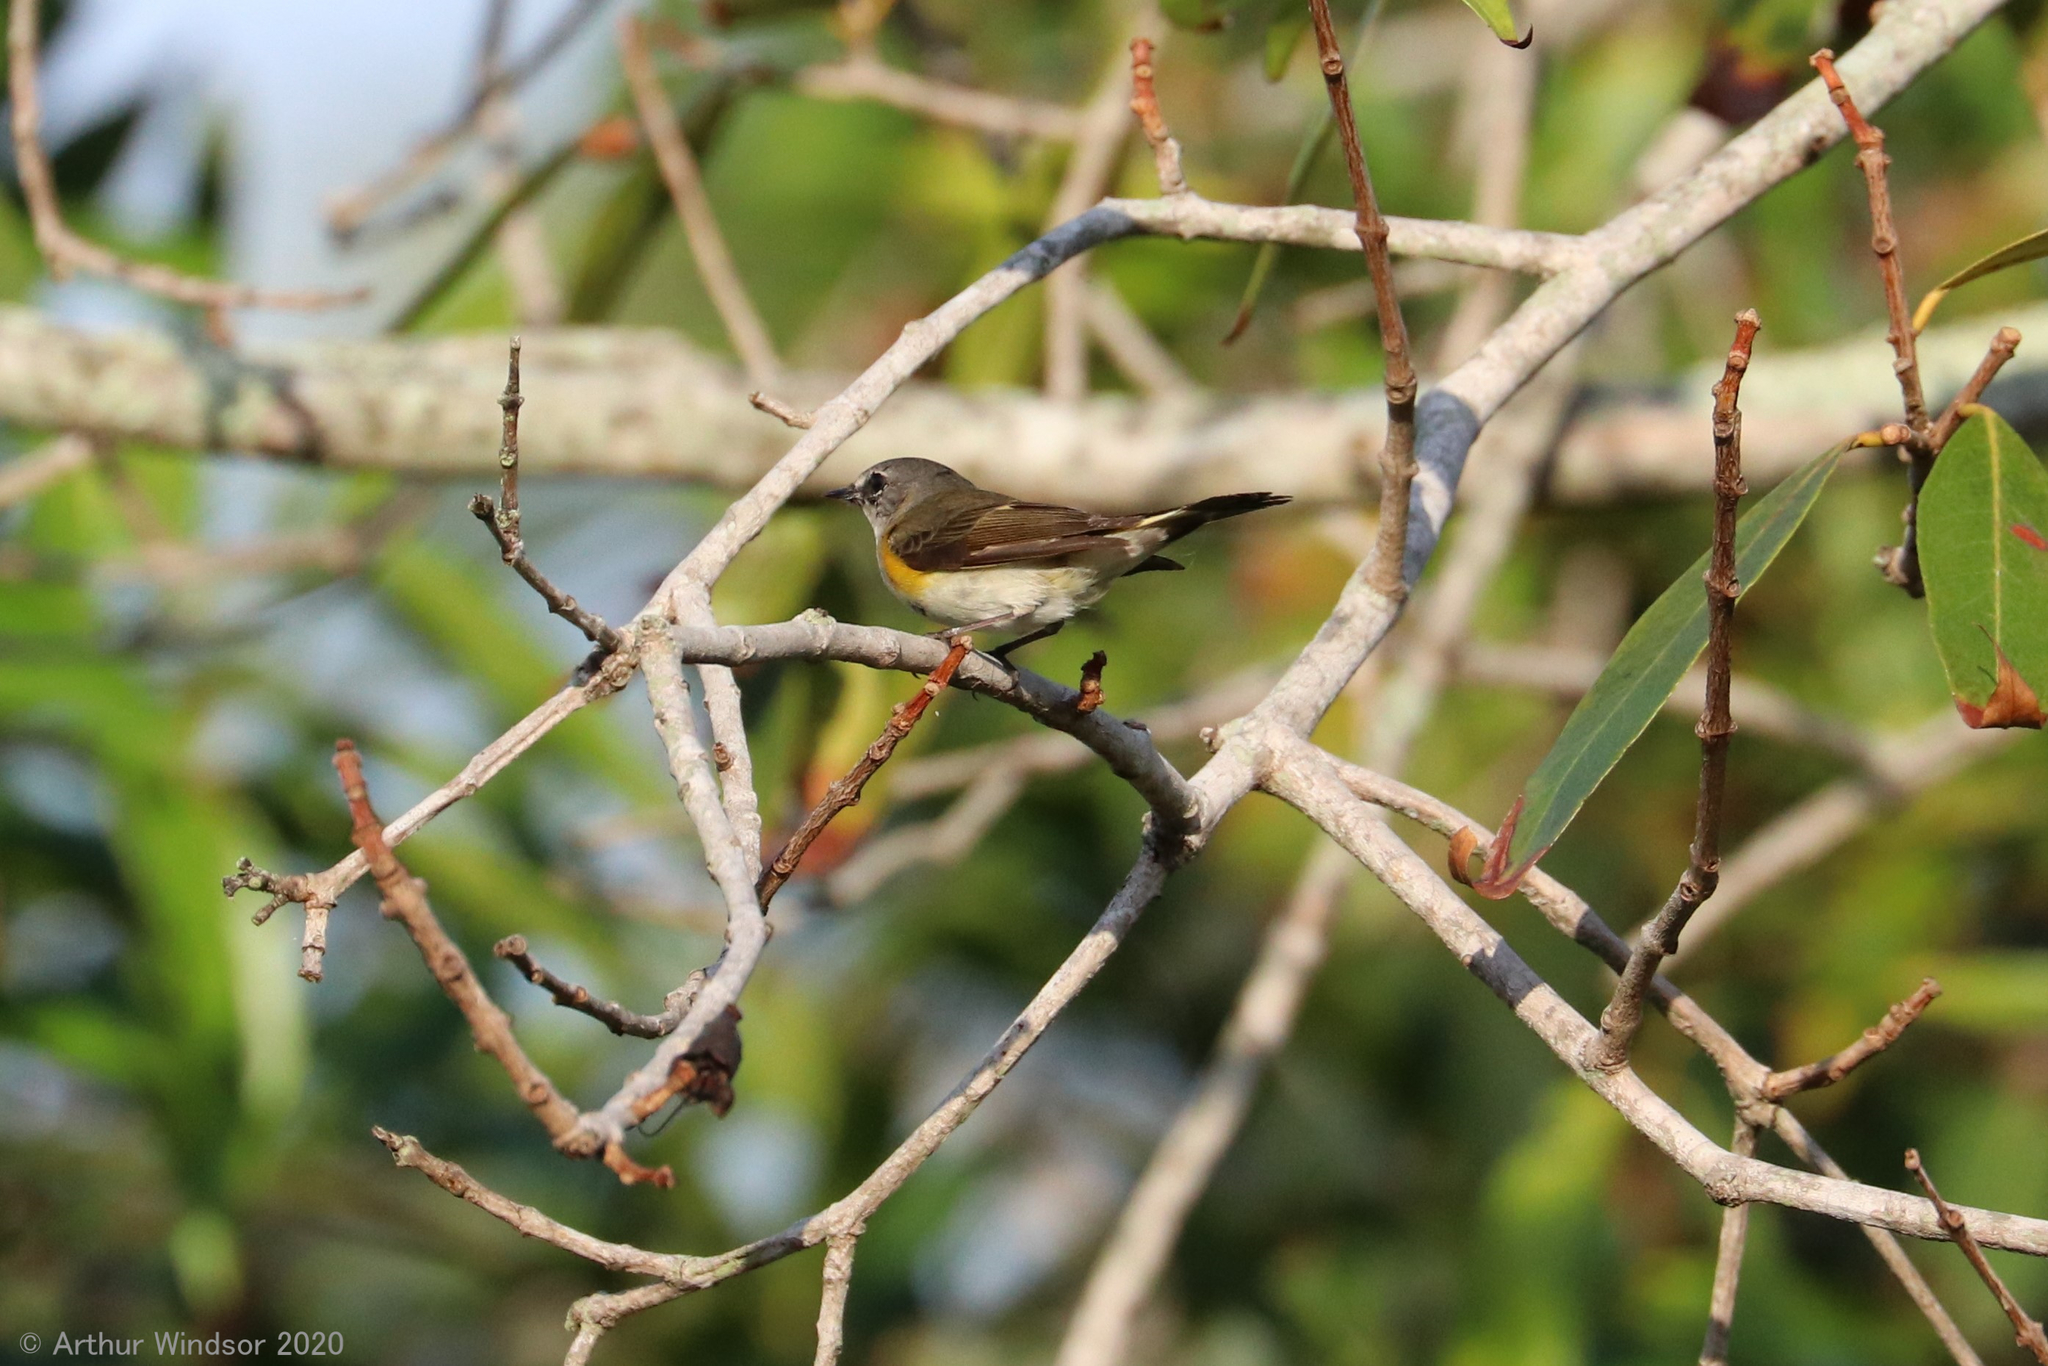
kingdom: Animalia
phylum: Chordata
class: Aves
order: Passeriformes
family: Parulidae
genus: Setophaga
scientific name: Setophaga ruticilla
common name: American redstart
